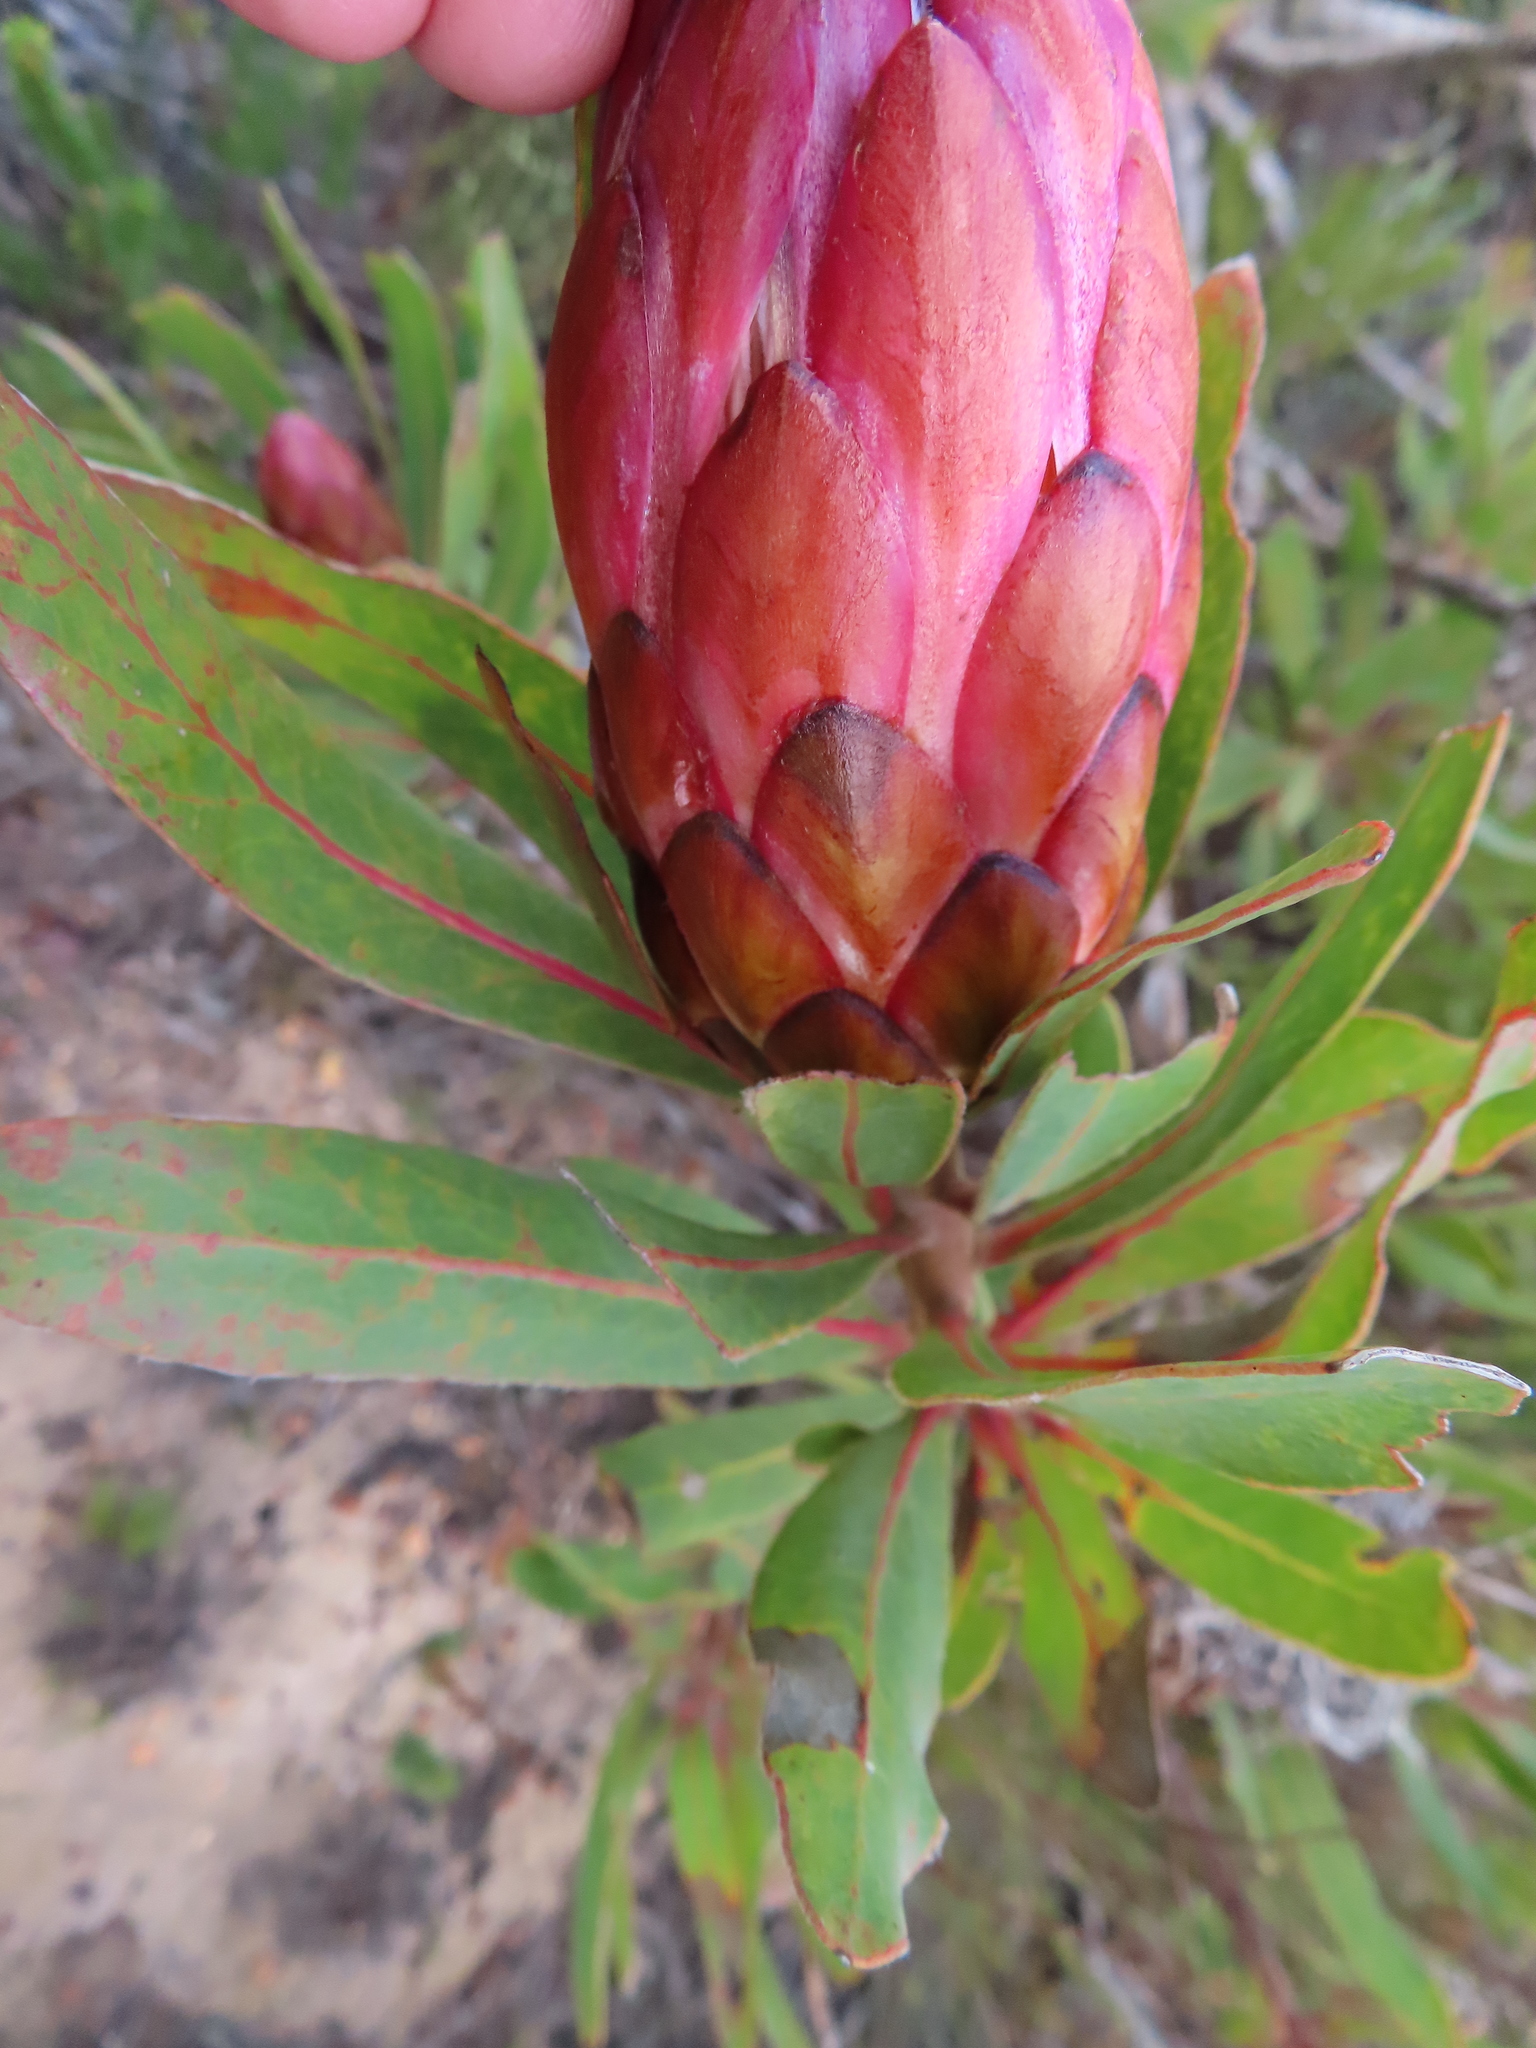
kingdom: Plantae
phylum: Tracheophyta
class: Magnoliopsida
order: Proteales
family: Proteaceae
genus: Protea
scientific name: Protea susannae
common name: Foetid-leaf sugarbush
